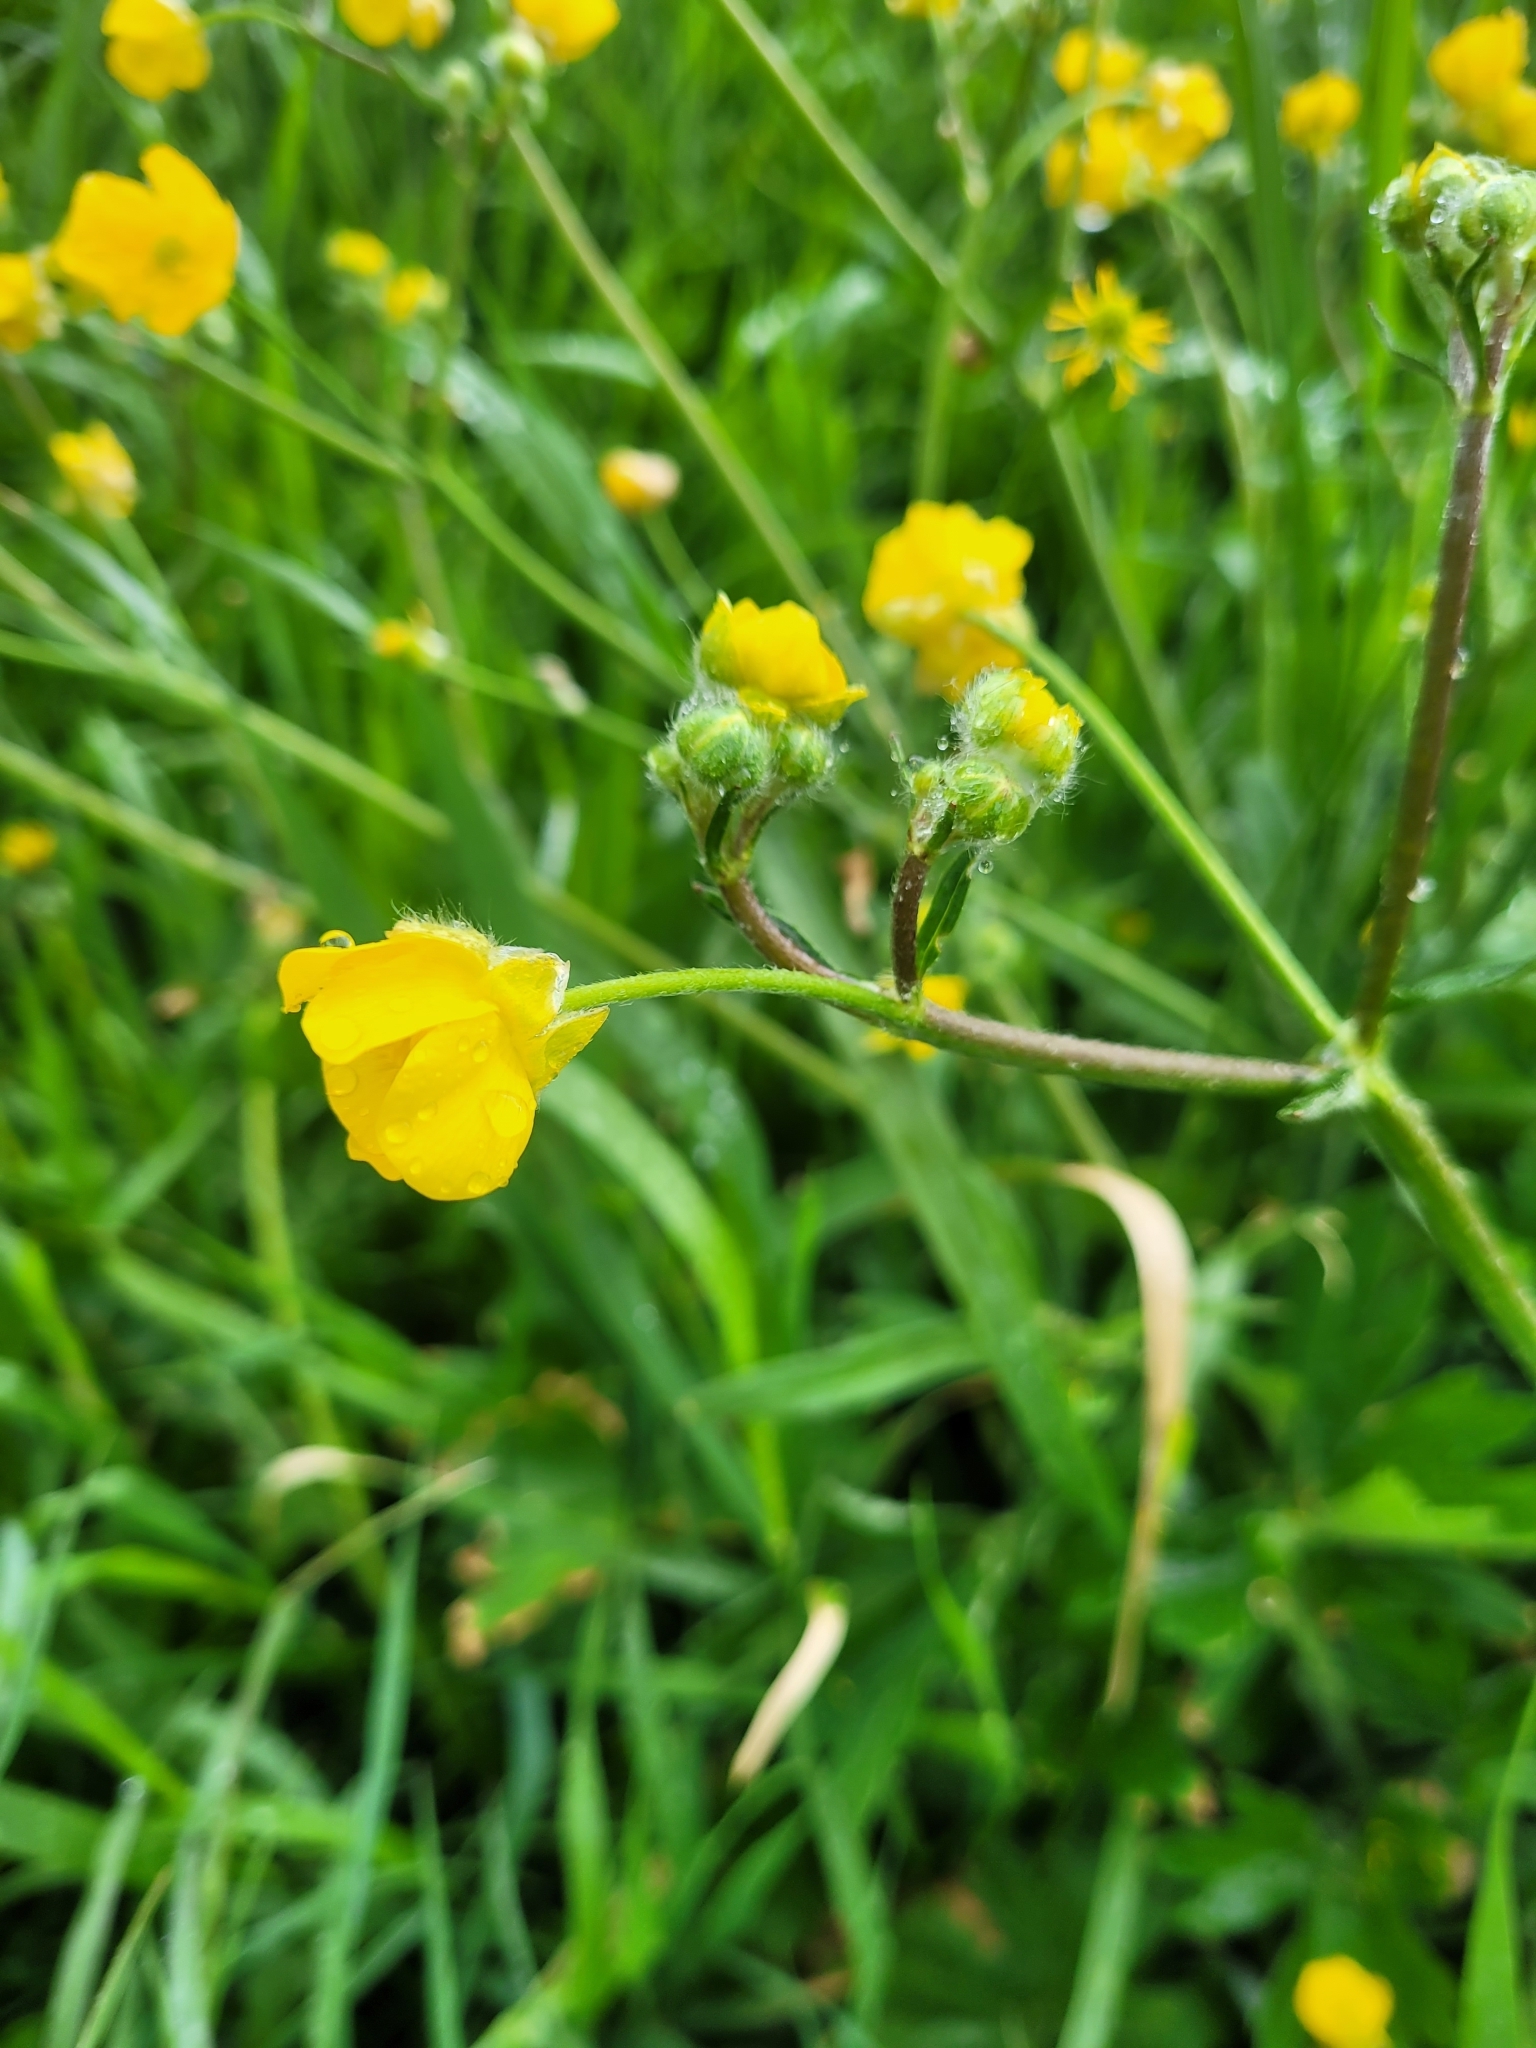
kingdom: Plantae
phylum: Tracheophyta
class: Magnoliopsida
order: Ranunculales
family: Ranunculaceae
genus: Ranunculus
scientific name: Ranunculus constantinopolitanus
